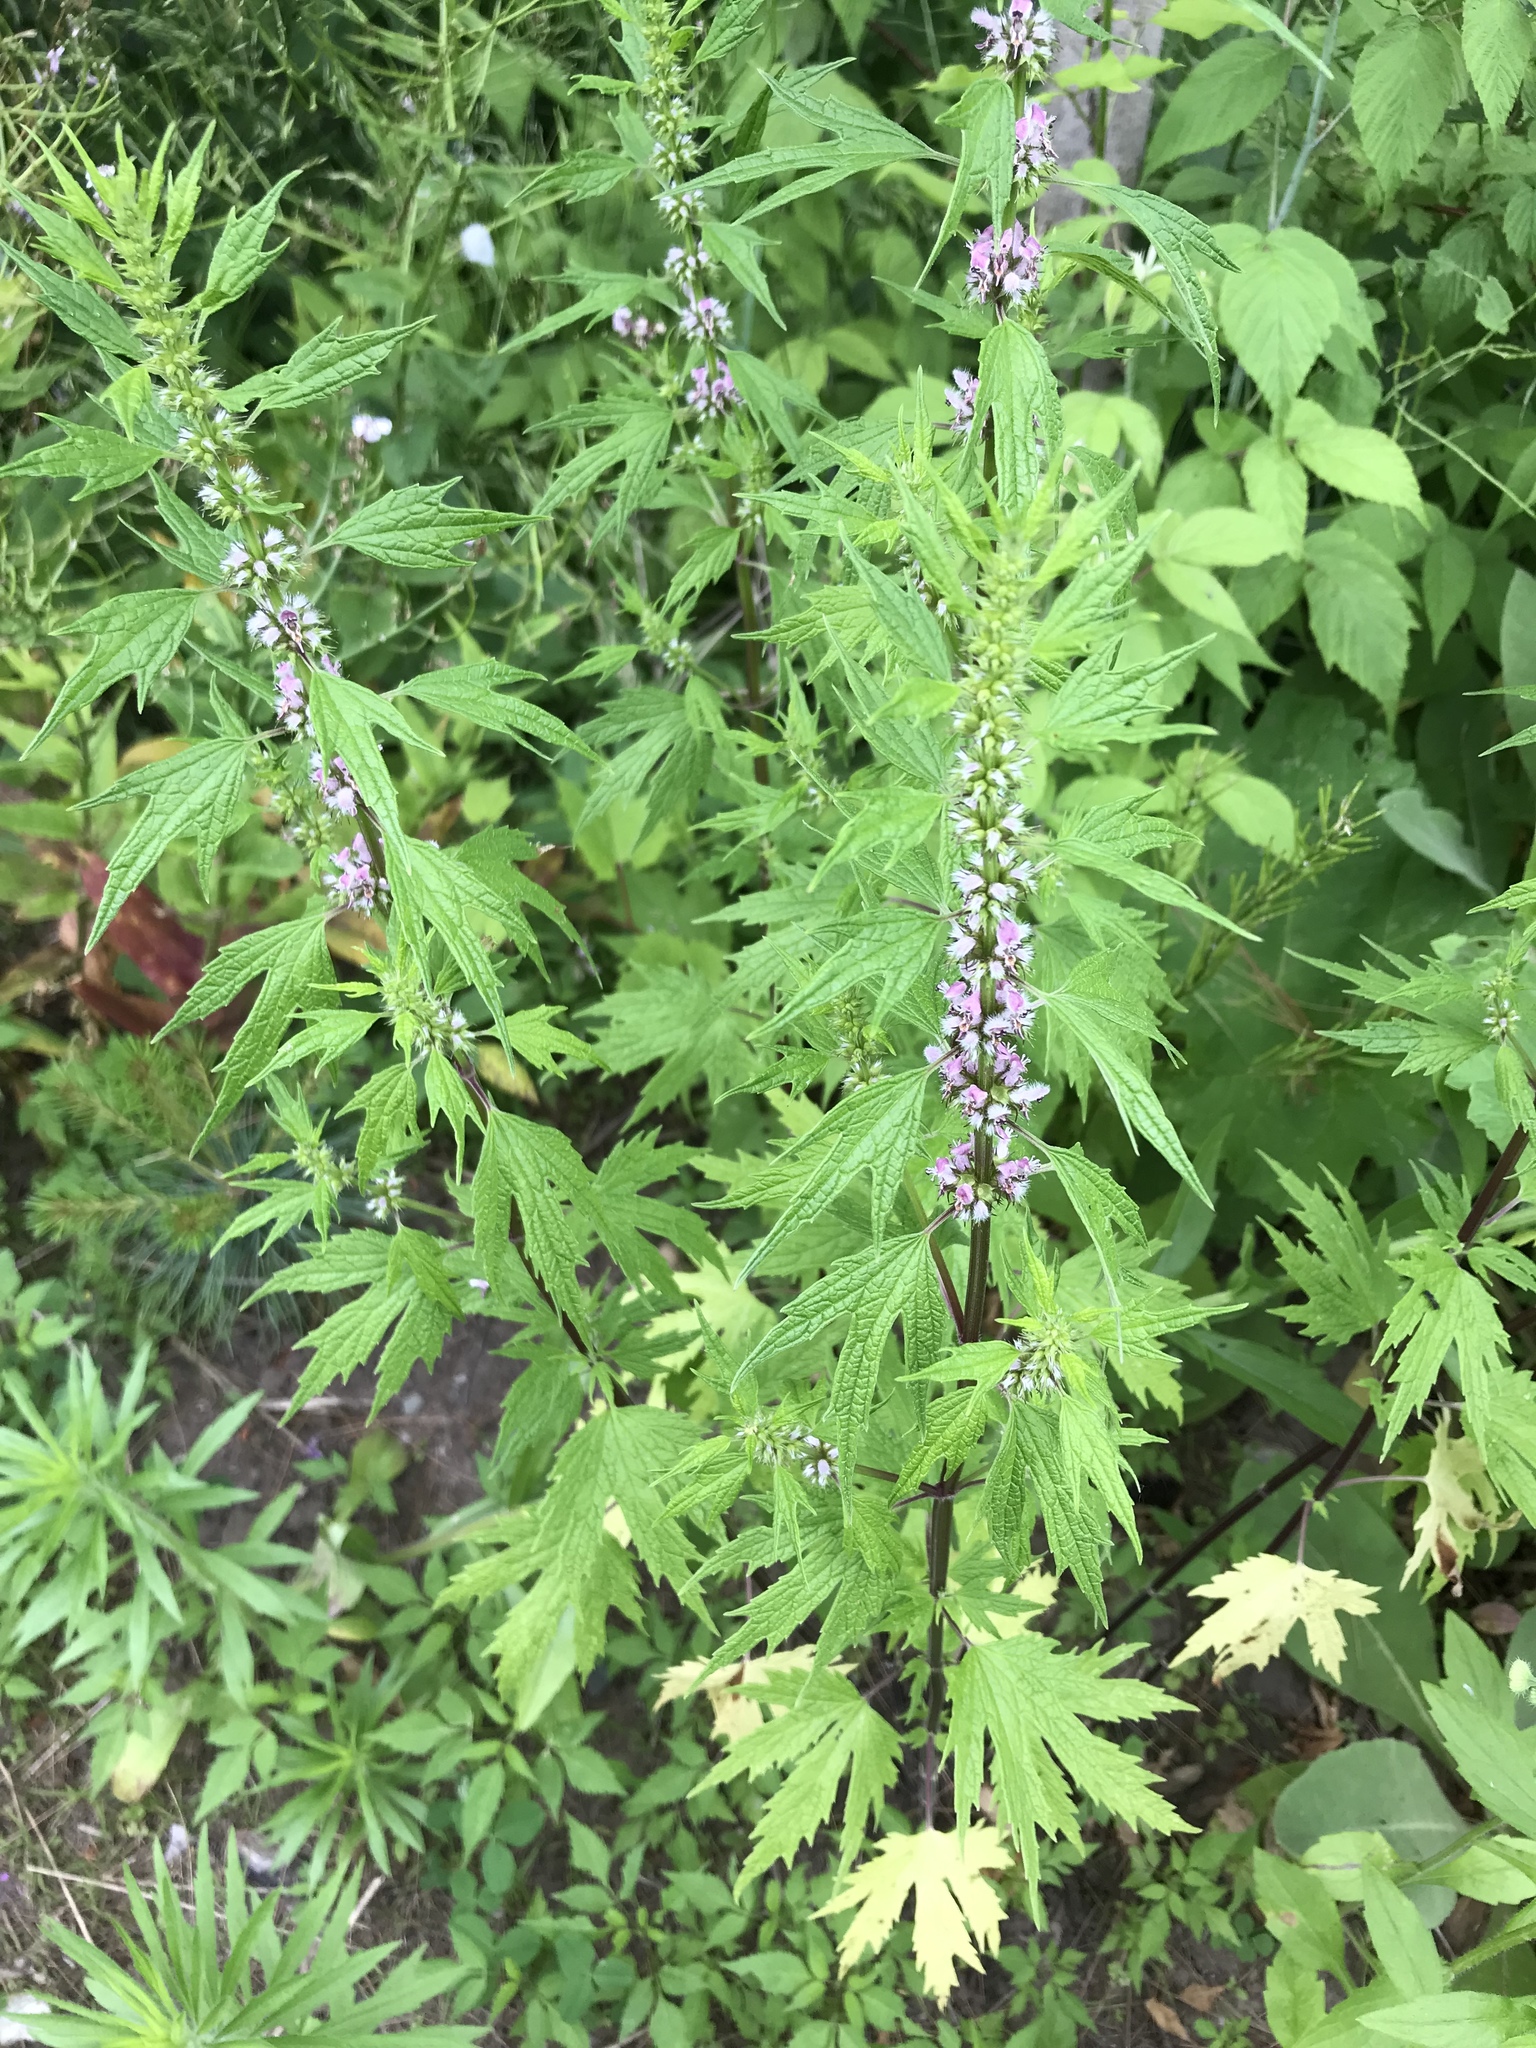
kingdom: Plantae
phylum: Tracheophyta
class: Magnoliopsida
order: Lamiales
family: Lamiaceae
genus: Leonurus
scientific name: Leonurus cardiaca
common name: Motherwort
